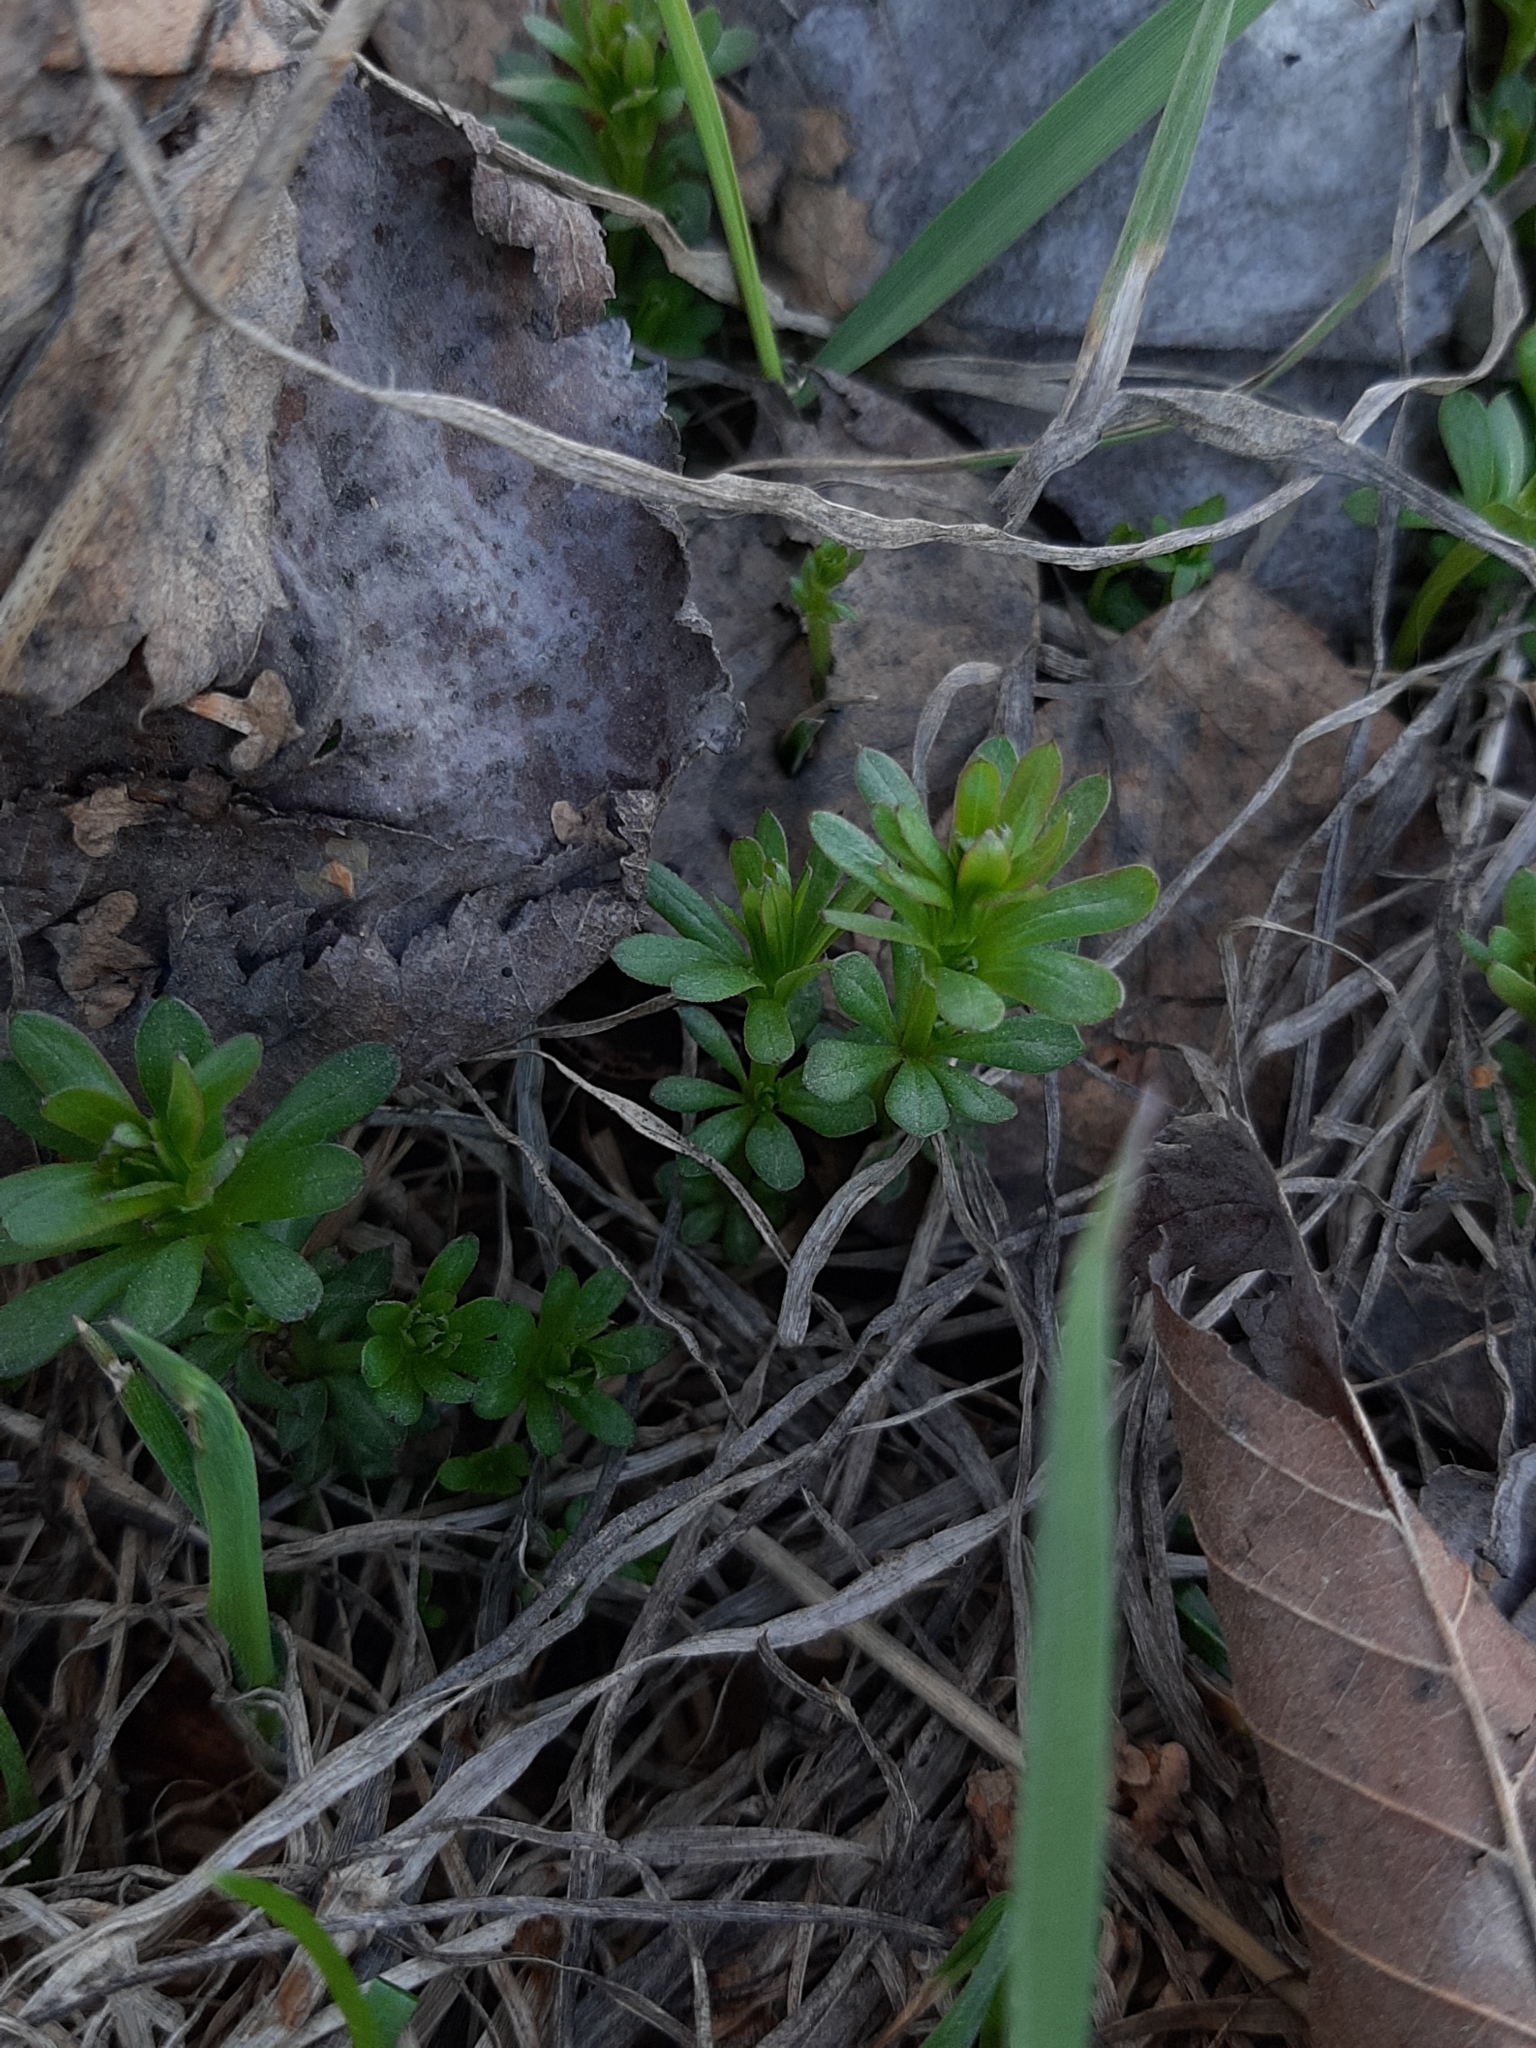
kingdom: Plantae
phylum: Tracheophyta
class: Magnoliopsida
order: Gentianales
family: Rubiaceae
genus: Galium
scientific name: Galium mollugo
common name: Hedge bedstraw
